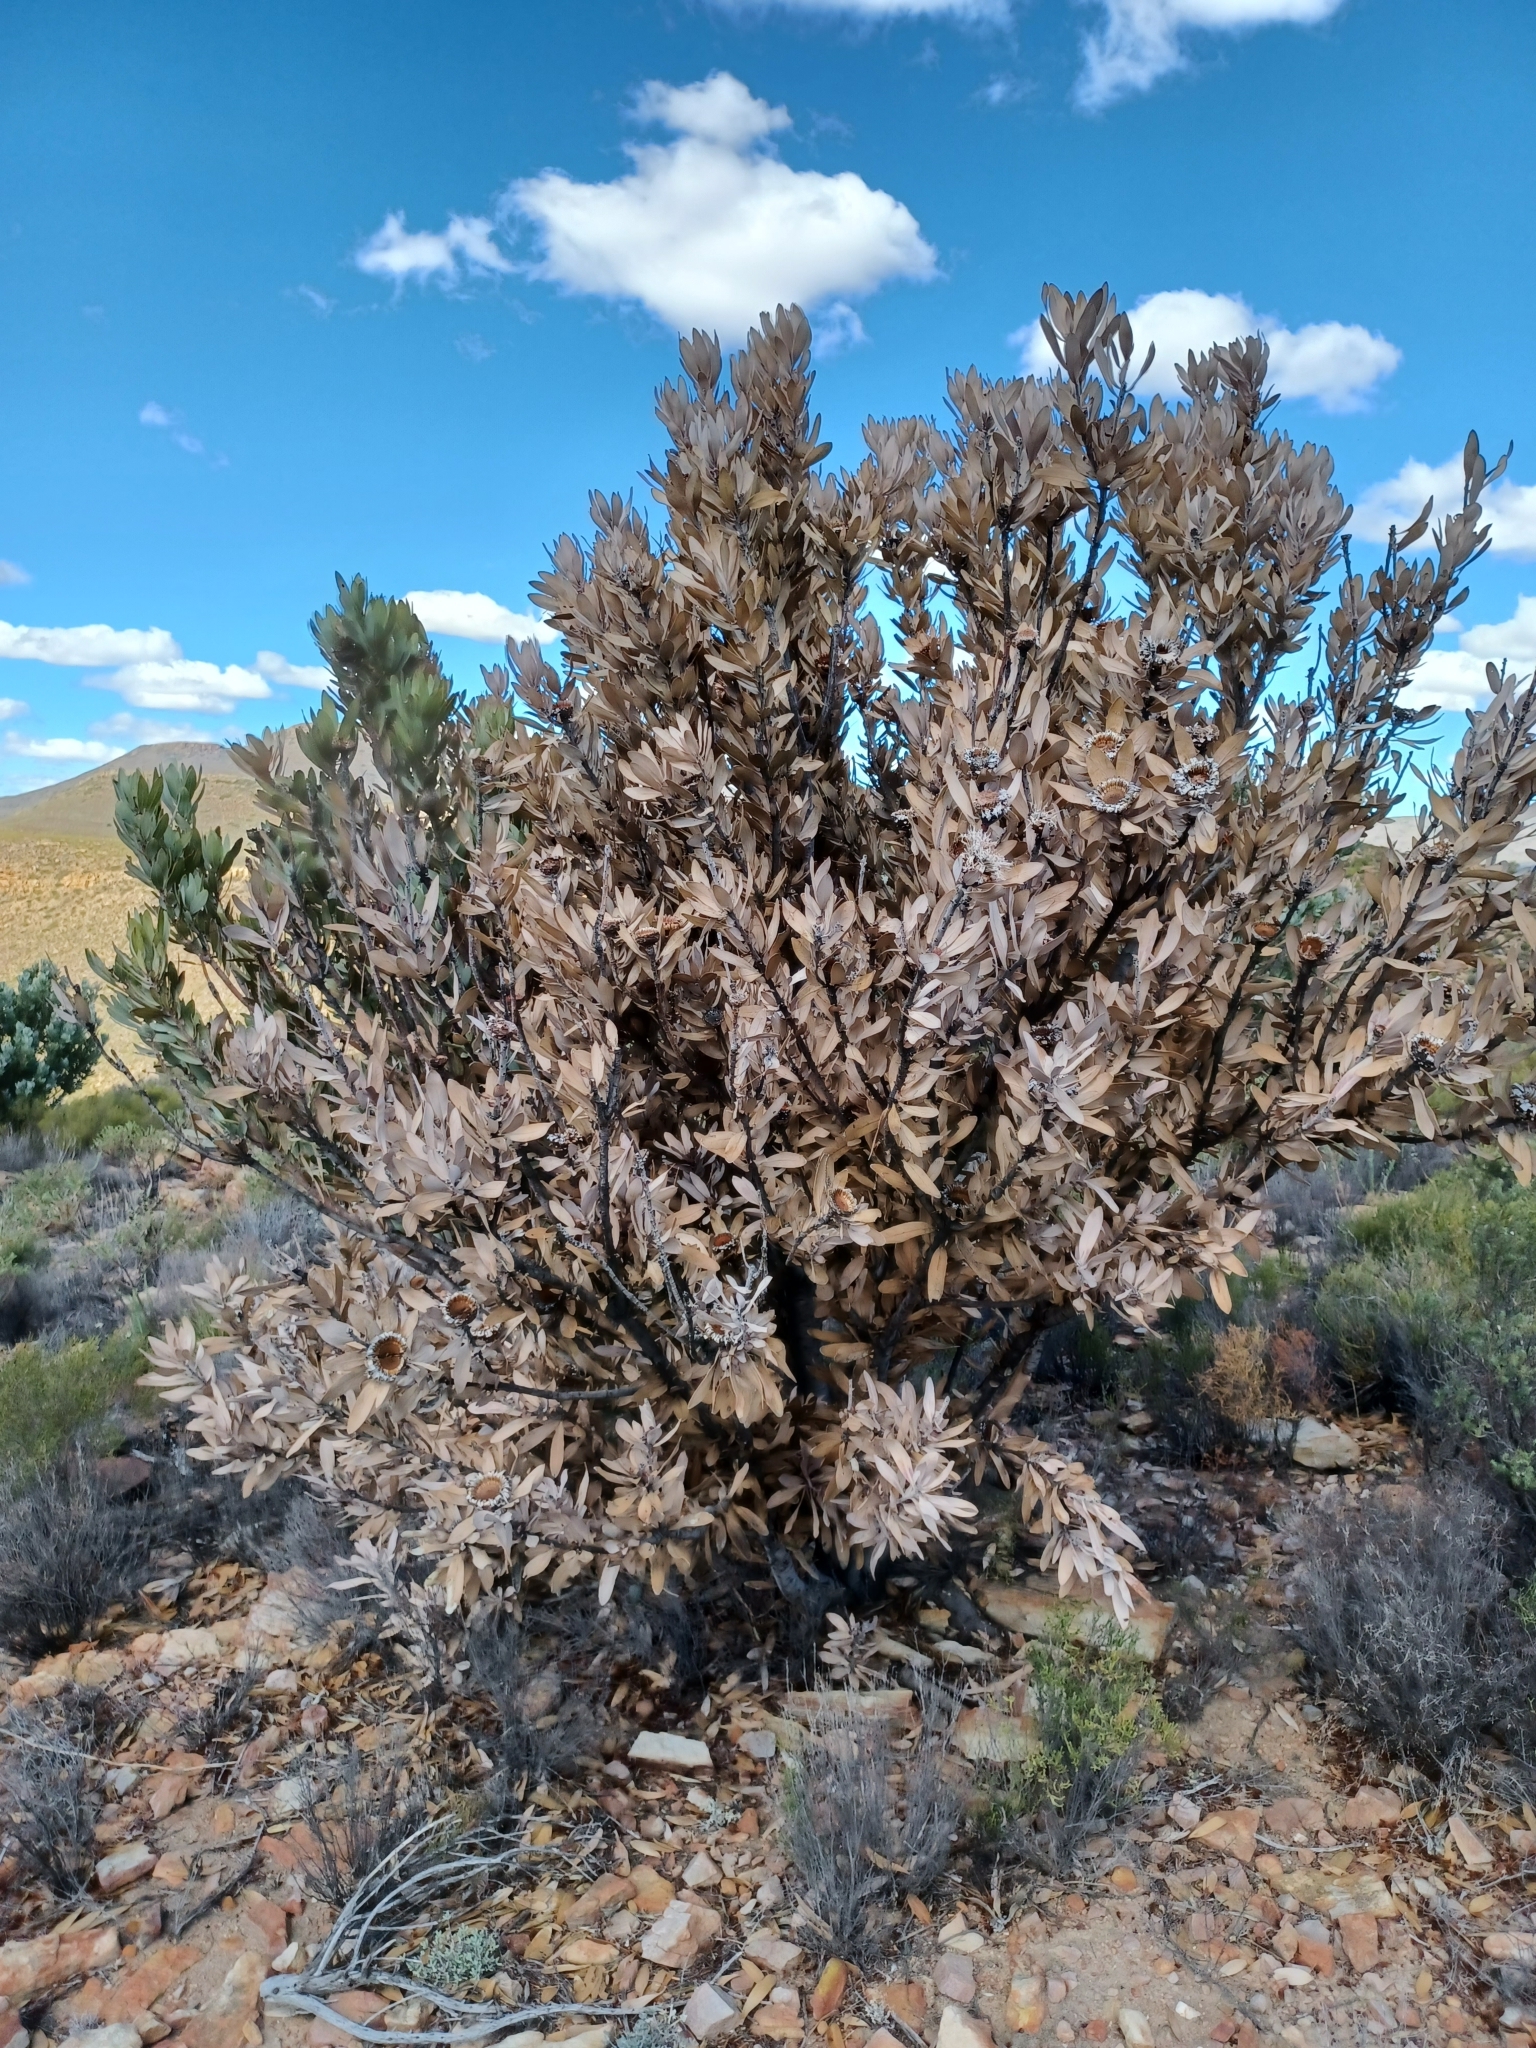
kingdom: Plantae
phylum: Tracheophyta
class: Magnoliopsida
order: Proteales
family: Proteaceae
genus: Protea
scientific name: Protea laurifolia
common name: Grey-leaf sugarbsh
